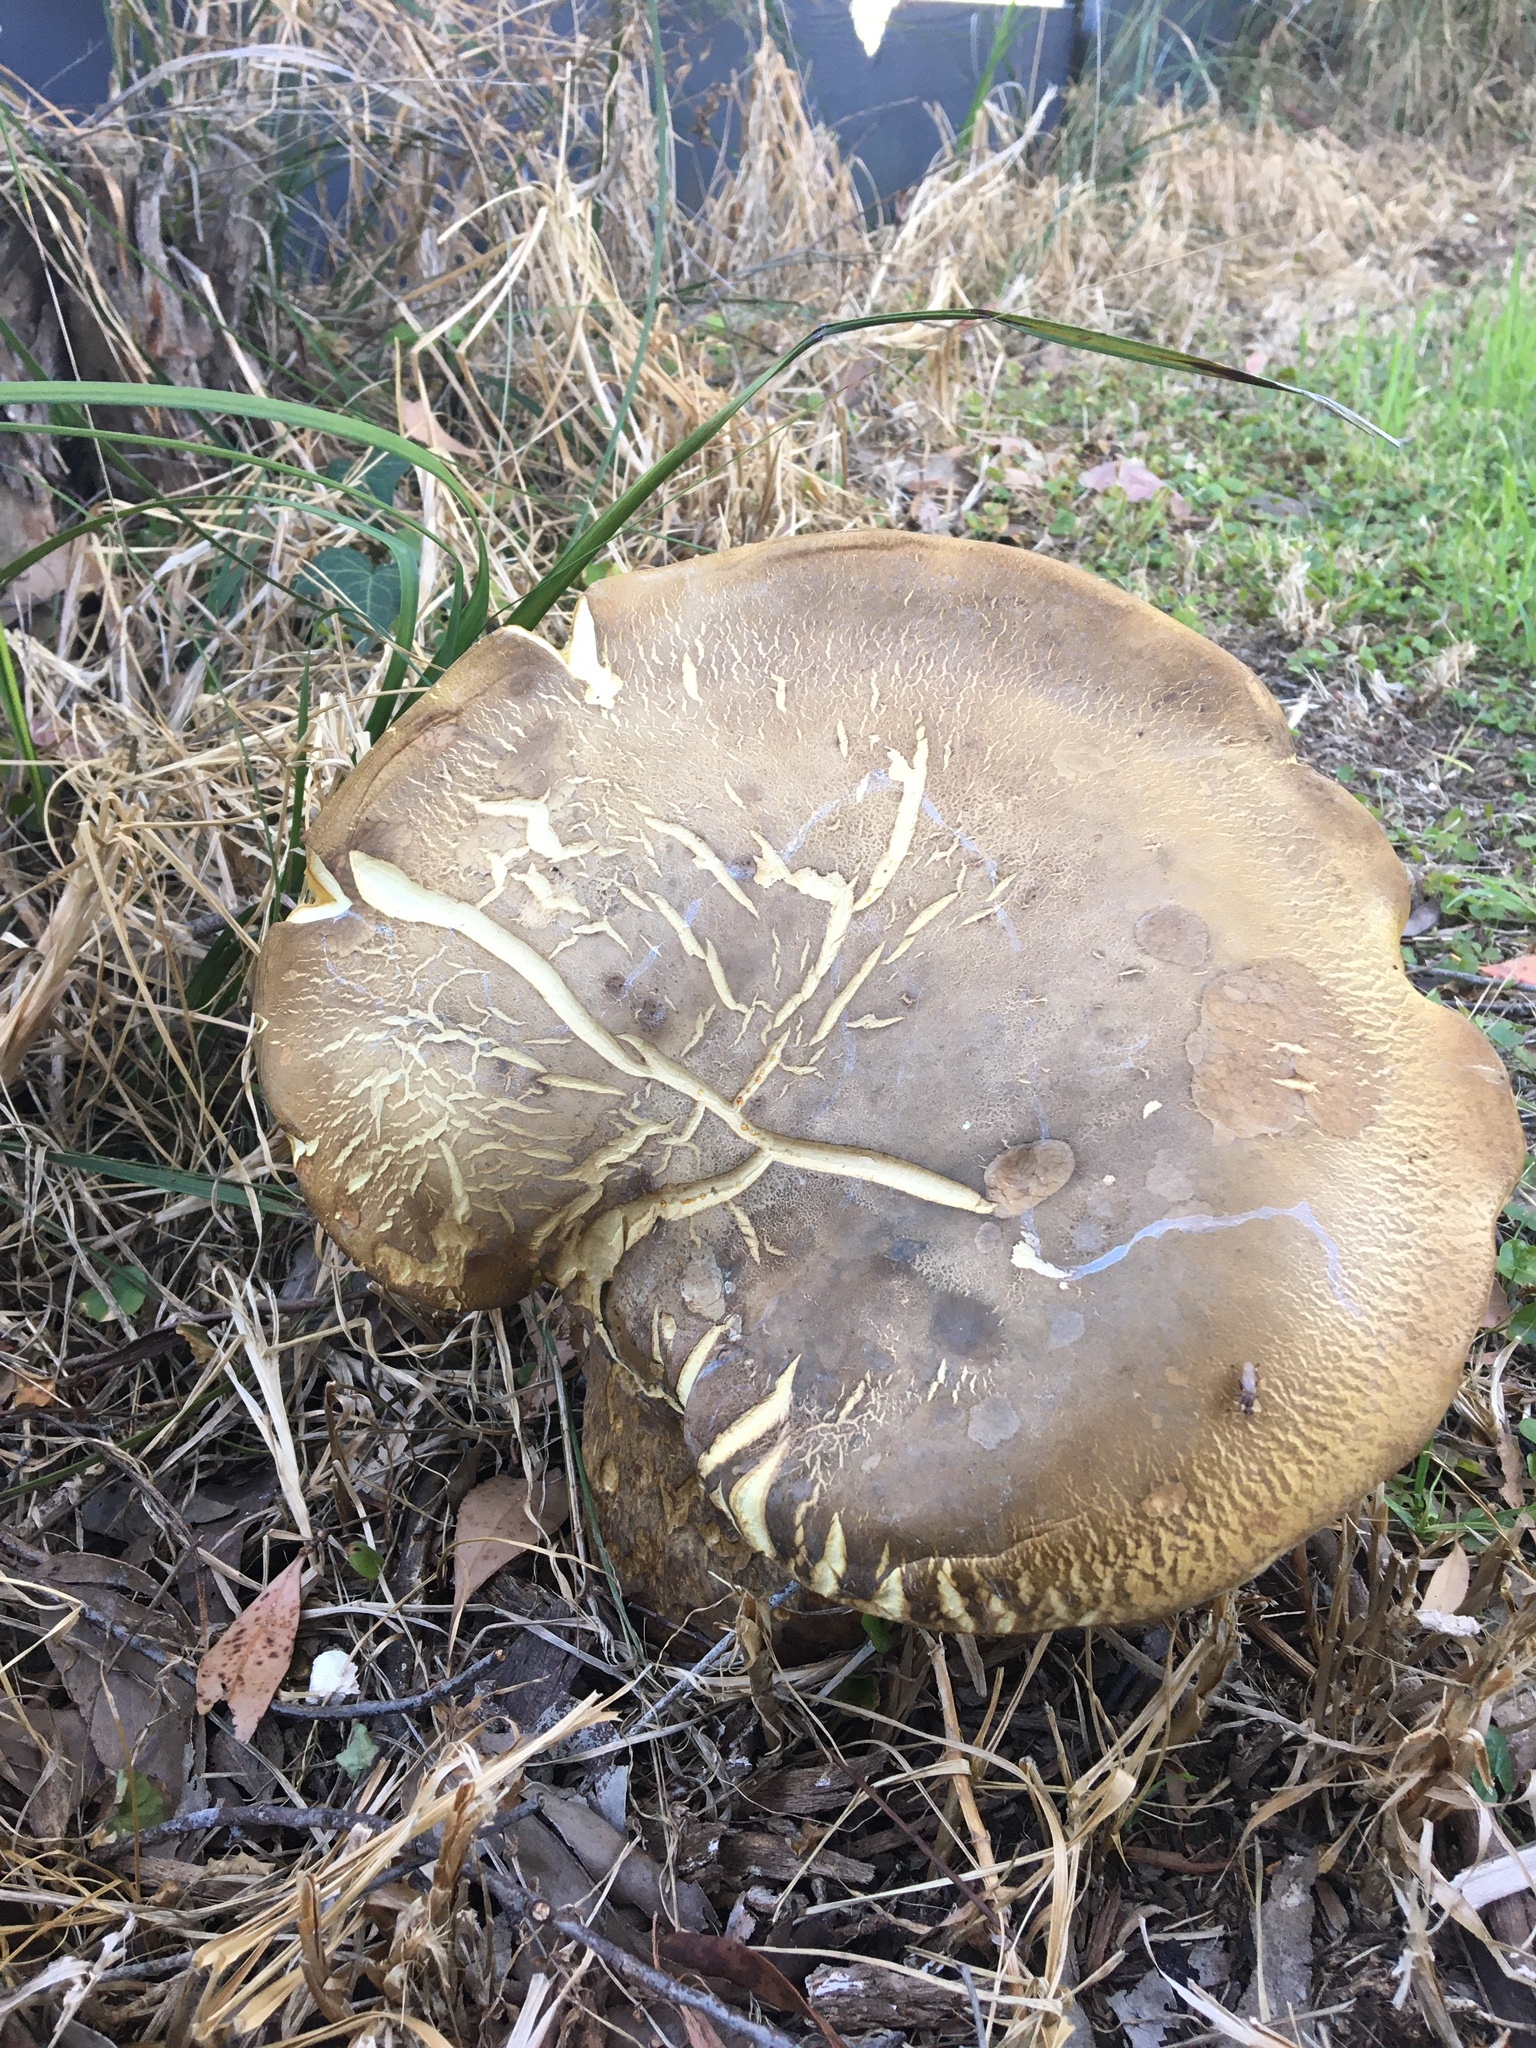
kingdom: Fungi
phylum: Basidiomycota
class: Agaricomycetes
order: Boletales
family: Boletinellaceae
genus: Phlebopus
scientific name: Phlebopus marginatus
